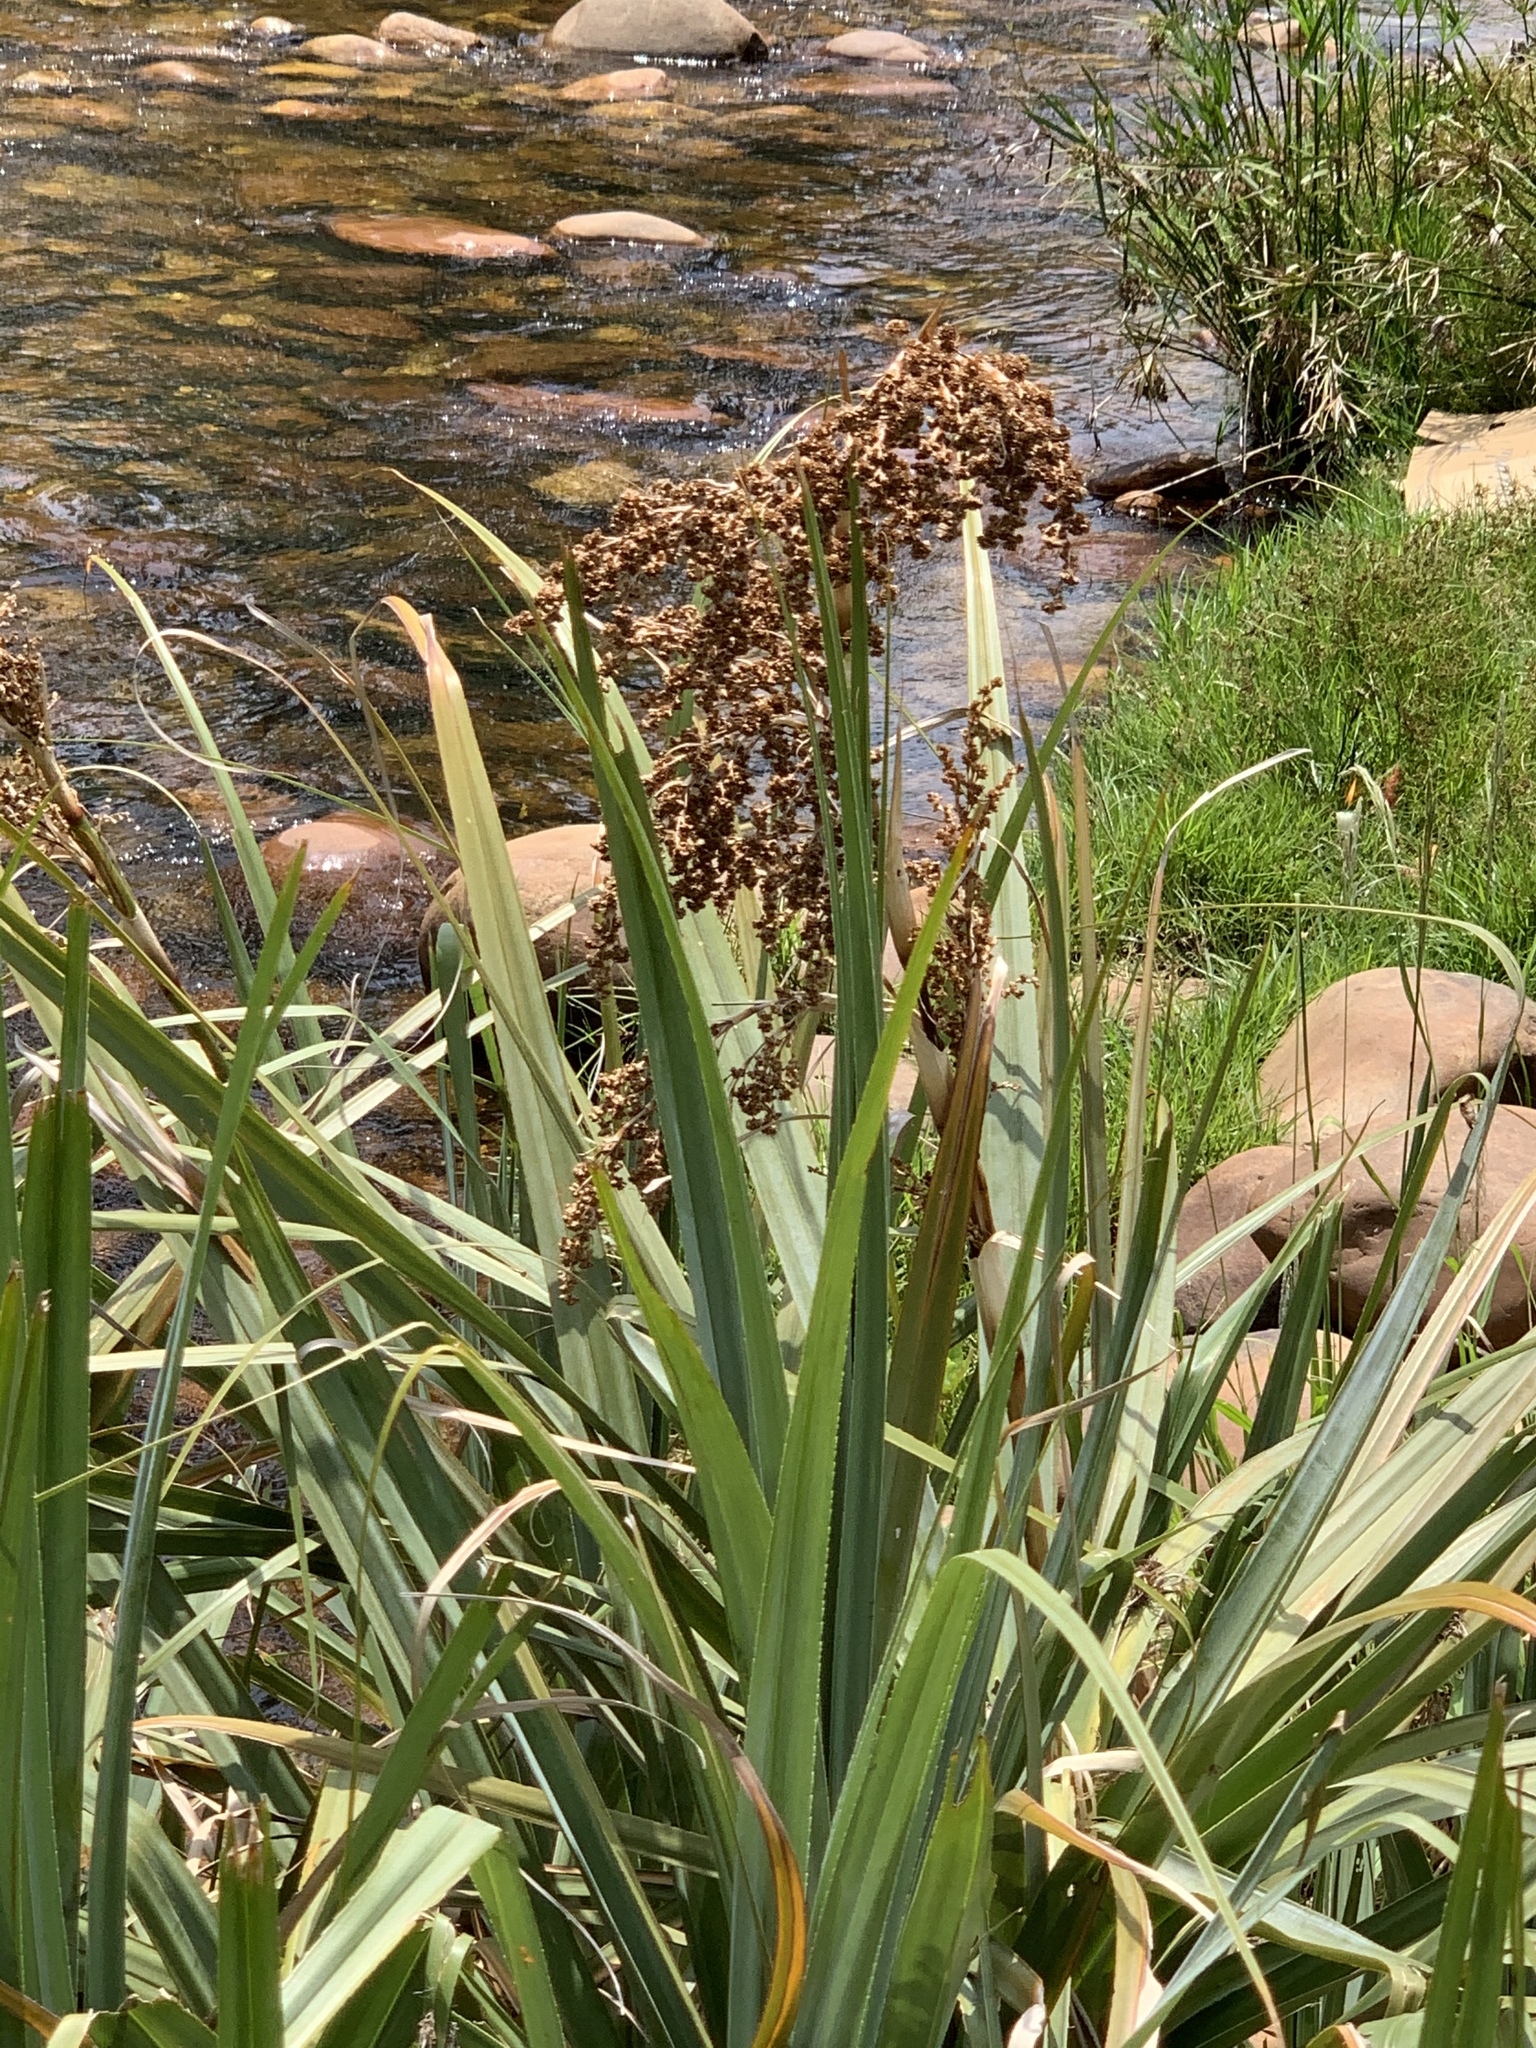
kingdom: Plantae
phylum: Tracheophyta
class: Liliopsida
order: Poales
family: Thurniaceae
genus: Prionium
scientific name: Prionium serratum
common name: Palmiet
